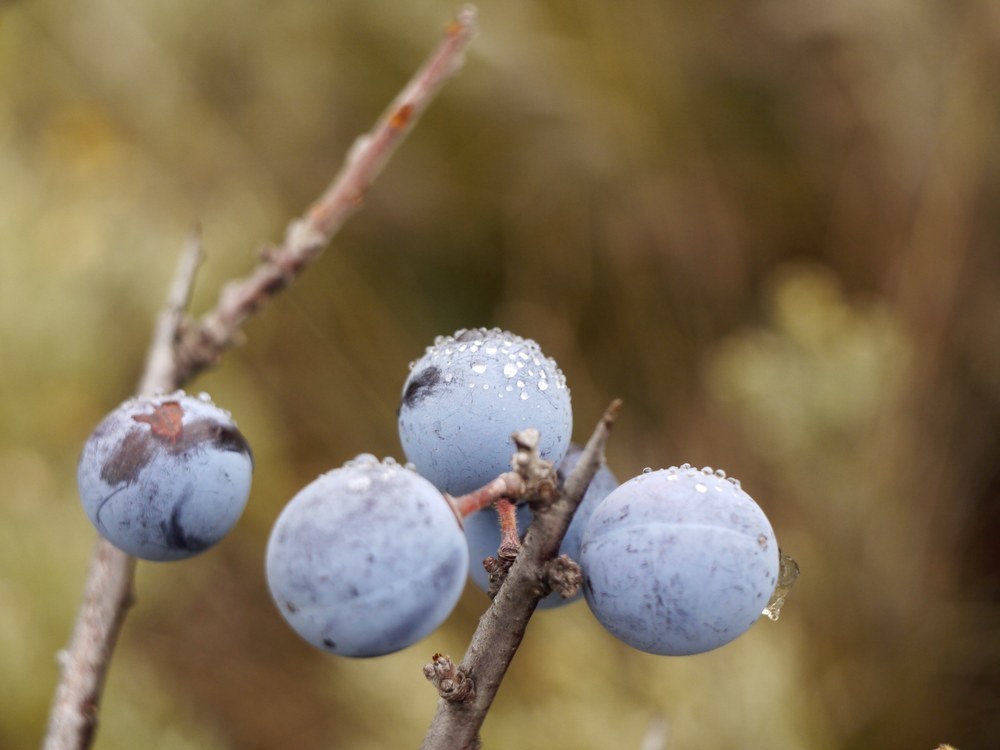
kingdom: Plantae
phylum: Tracheophyta
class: Magnoliopsida
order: Rosales
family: Rosaceae
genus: Prunus
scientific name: Prunus spinosa
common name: Blackthorn
